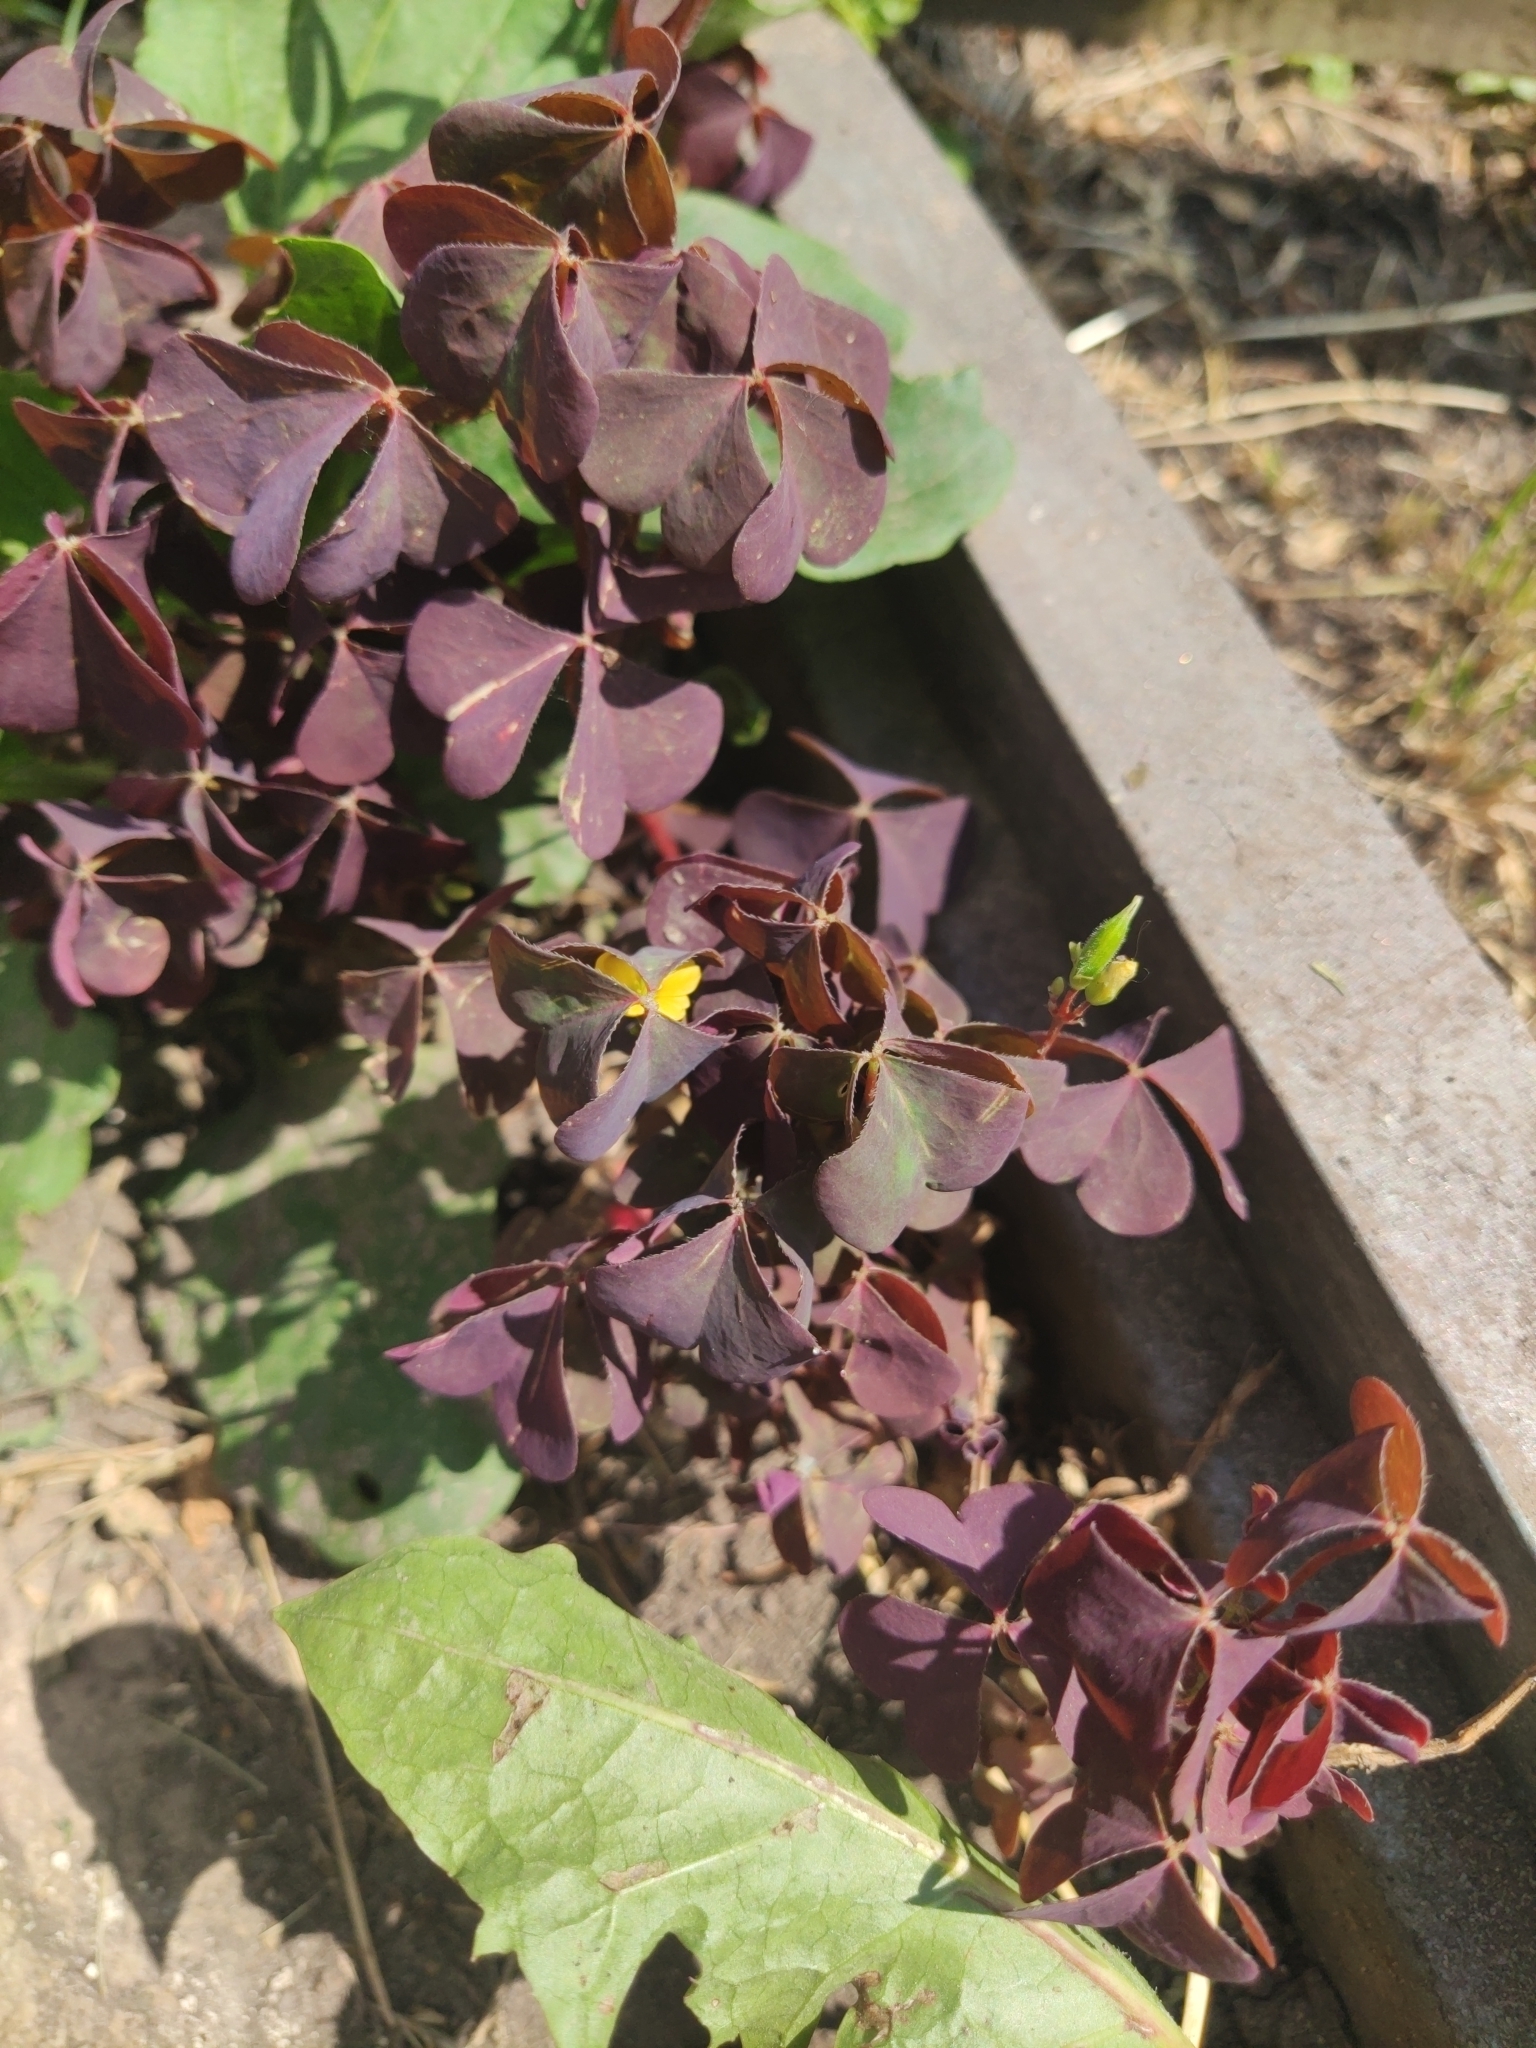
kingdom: Plantae
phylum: Tracheophyta
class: Magnoliopsida
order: Oxalidales
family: Oxalidaceae
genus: Oxalis
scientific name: Oxalis stricta
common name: Upright yellow-sorrel
